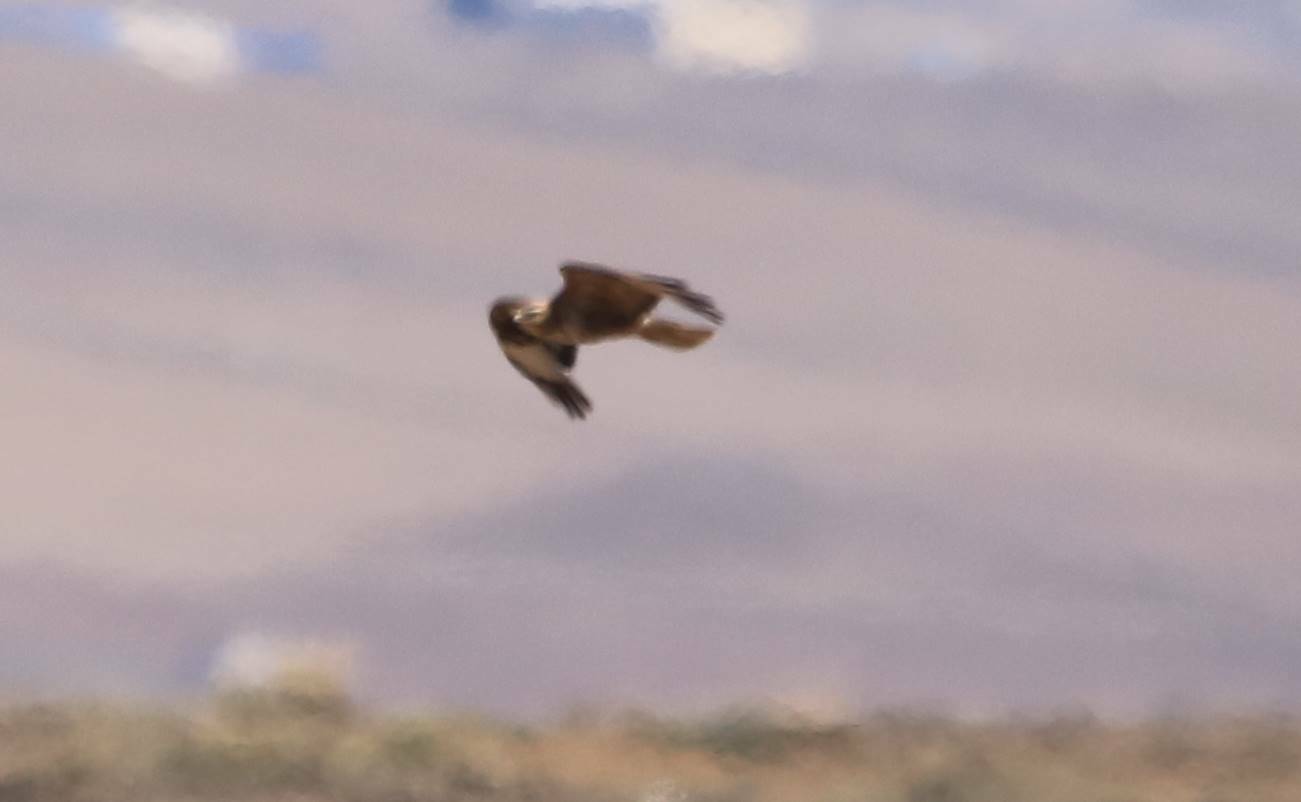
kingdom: Animalia
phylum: Chordata
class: Aves
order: Accipitriformes
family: Accipitridae
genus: Buteo
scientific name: Buteo rufinus
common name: Long-legged buzzard
